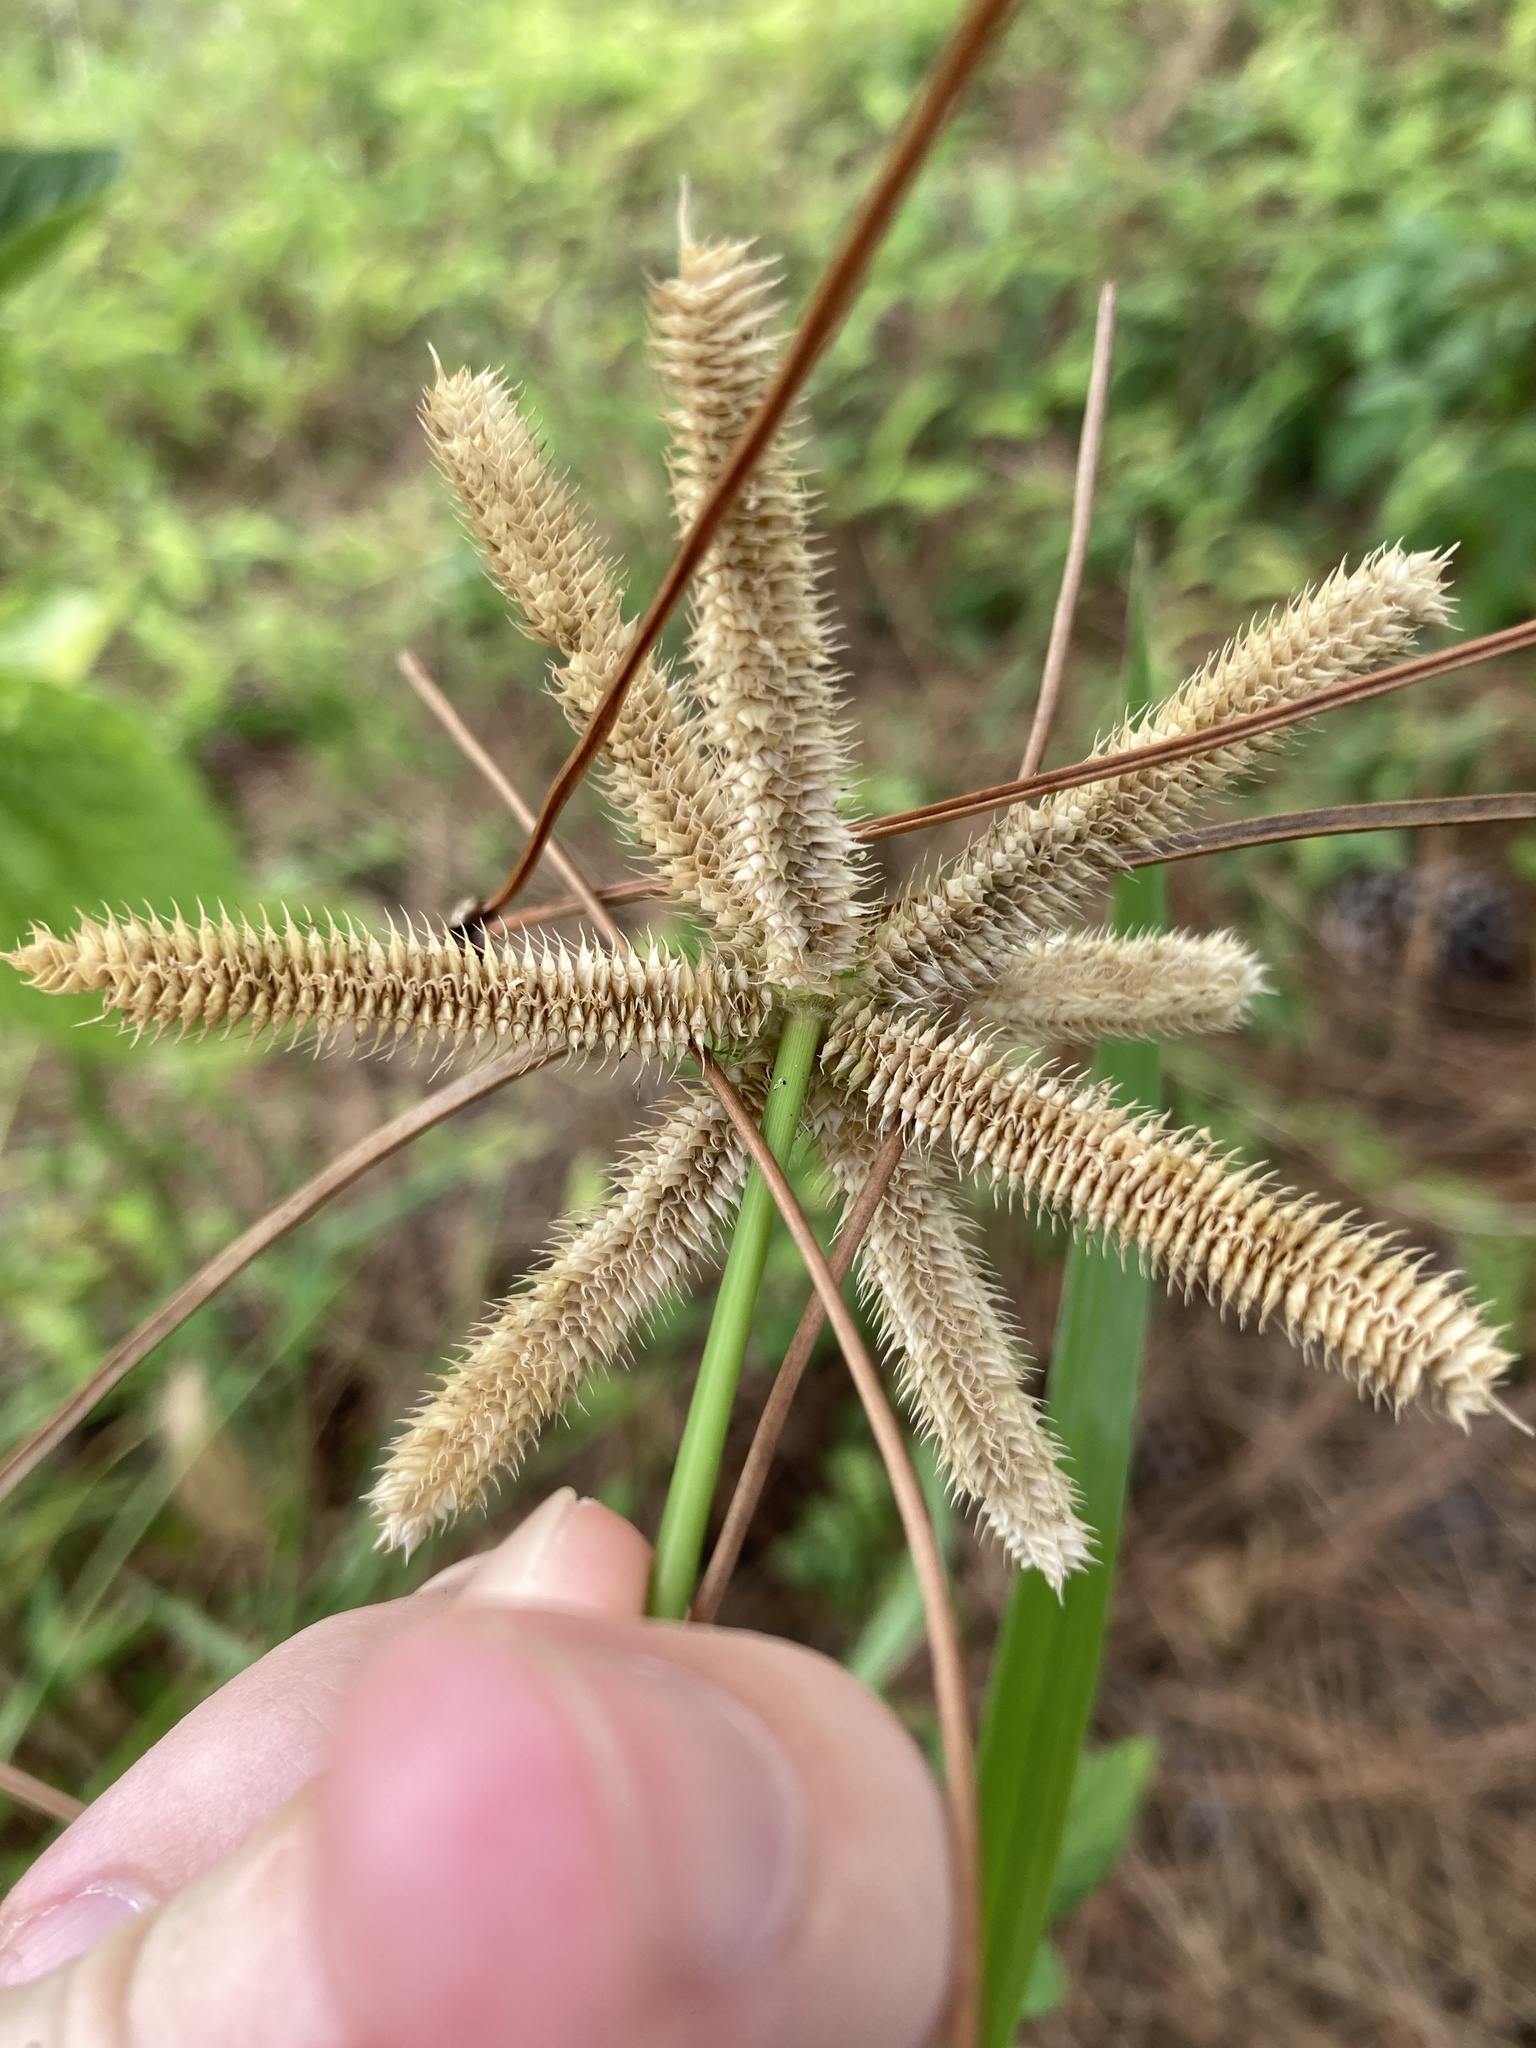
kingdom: Plantae
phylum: Tracheophyta
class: Liliopsida
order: Poales
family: Poaceae
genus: Dactyloctenium
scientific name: Dactyloctenium aegyptium
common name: Egyptian grass
